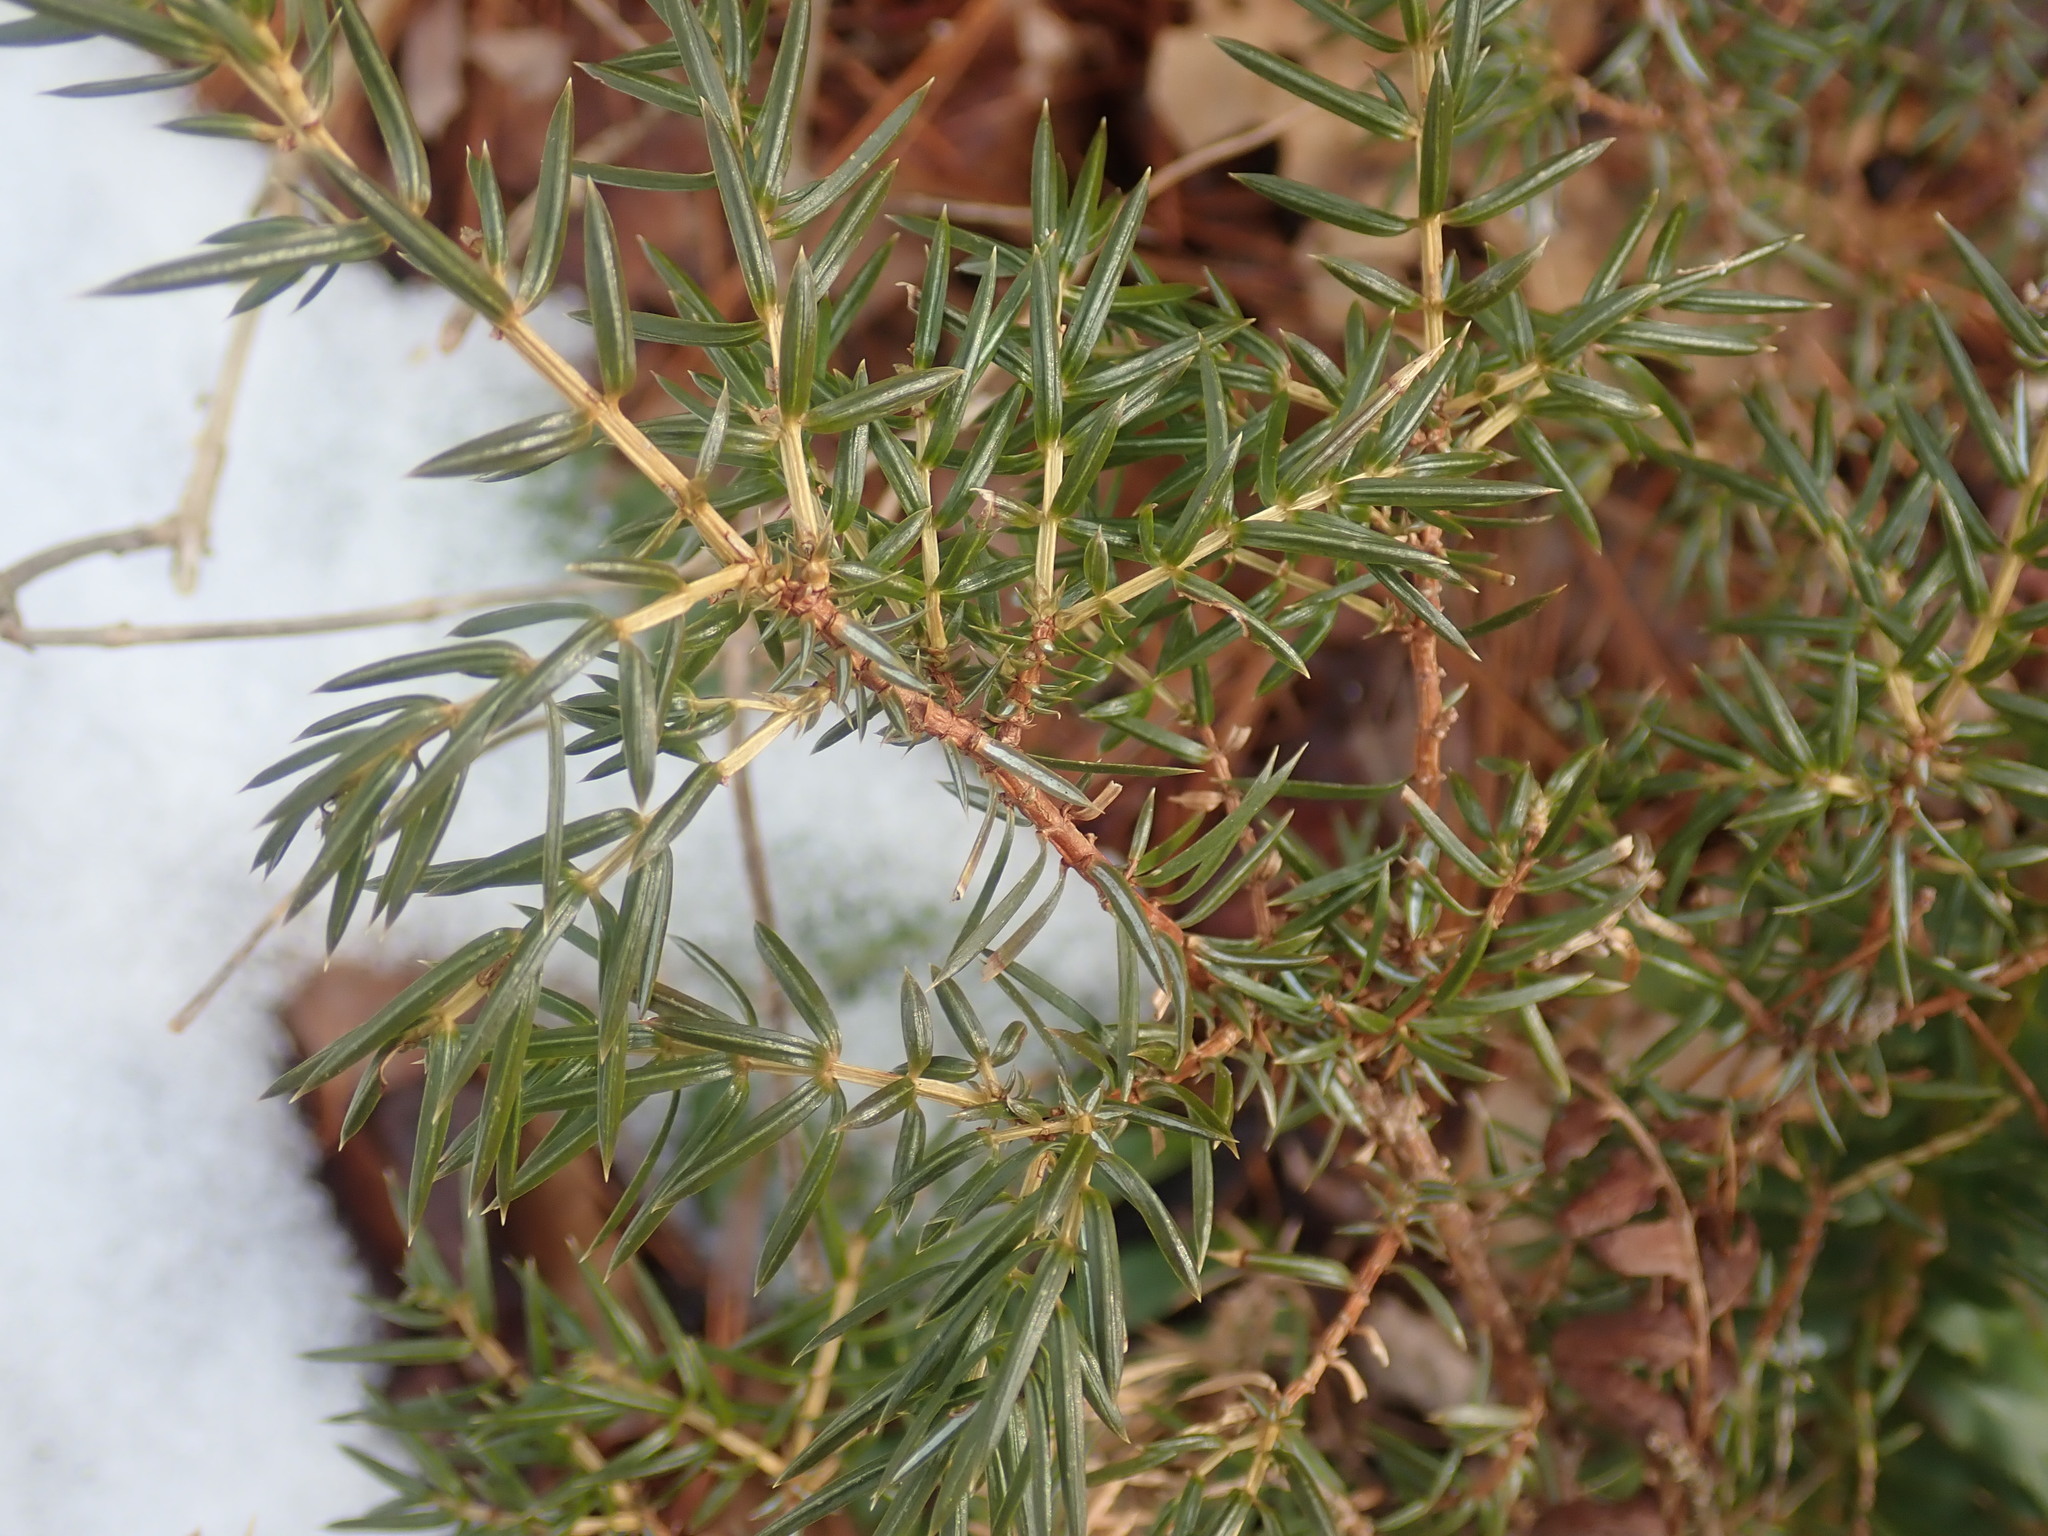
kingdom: Plantae
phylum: Tracheophyta
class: Pinopsida
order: Pinales
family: Cupressaceae
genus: Juniperus
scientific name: Juniperus communis
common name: Common juniper
